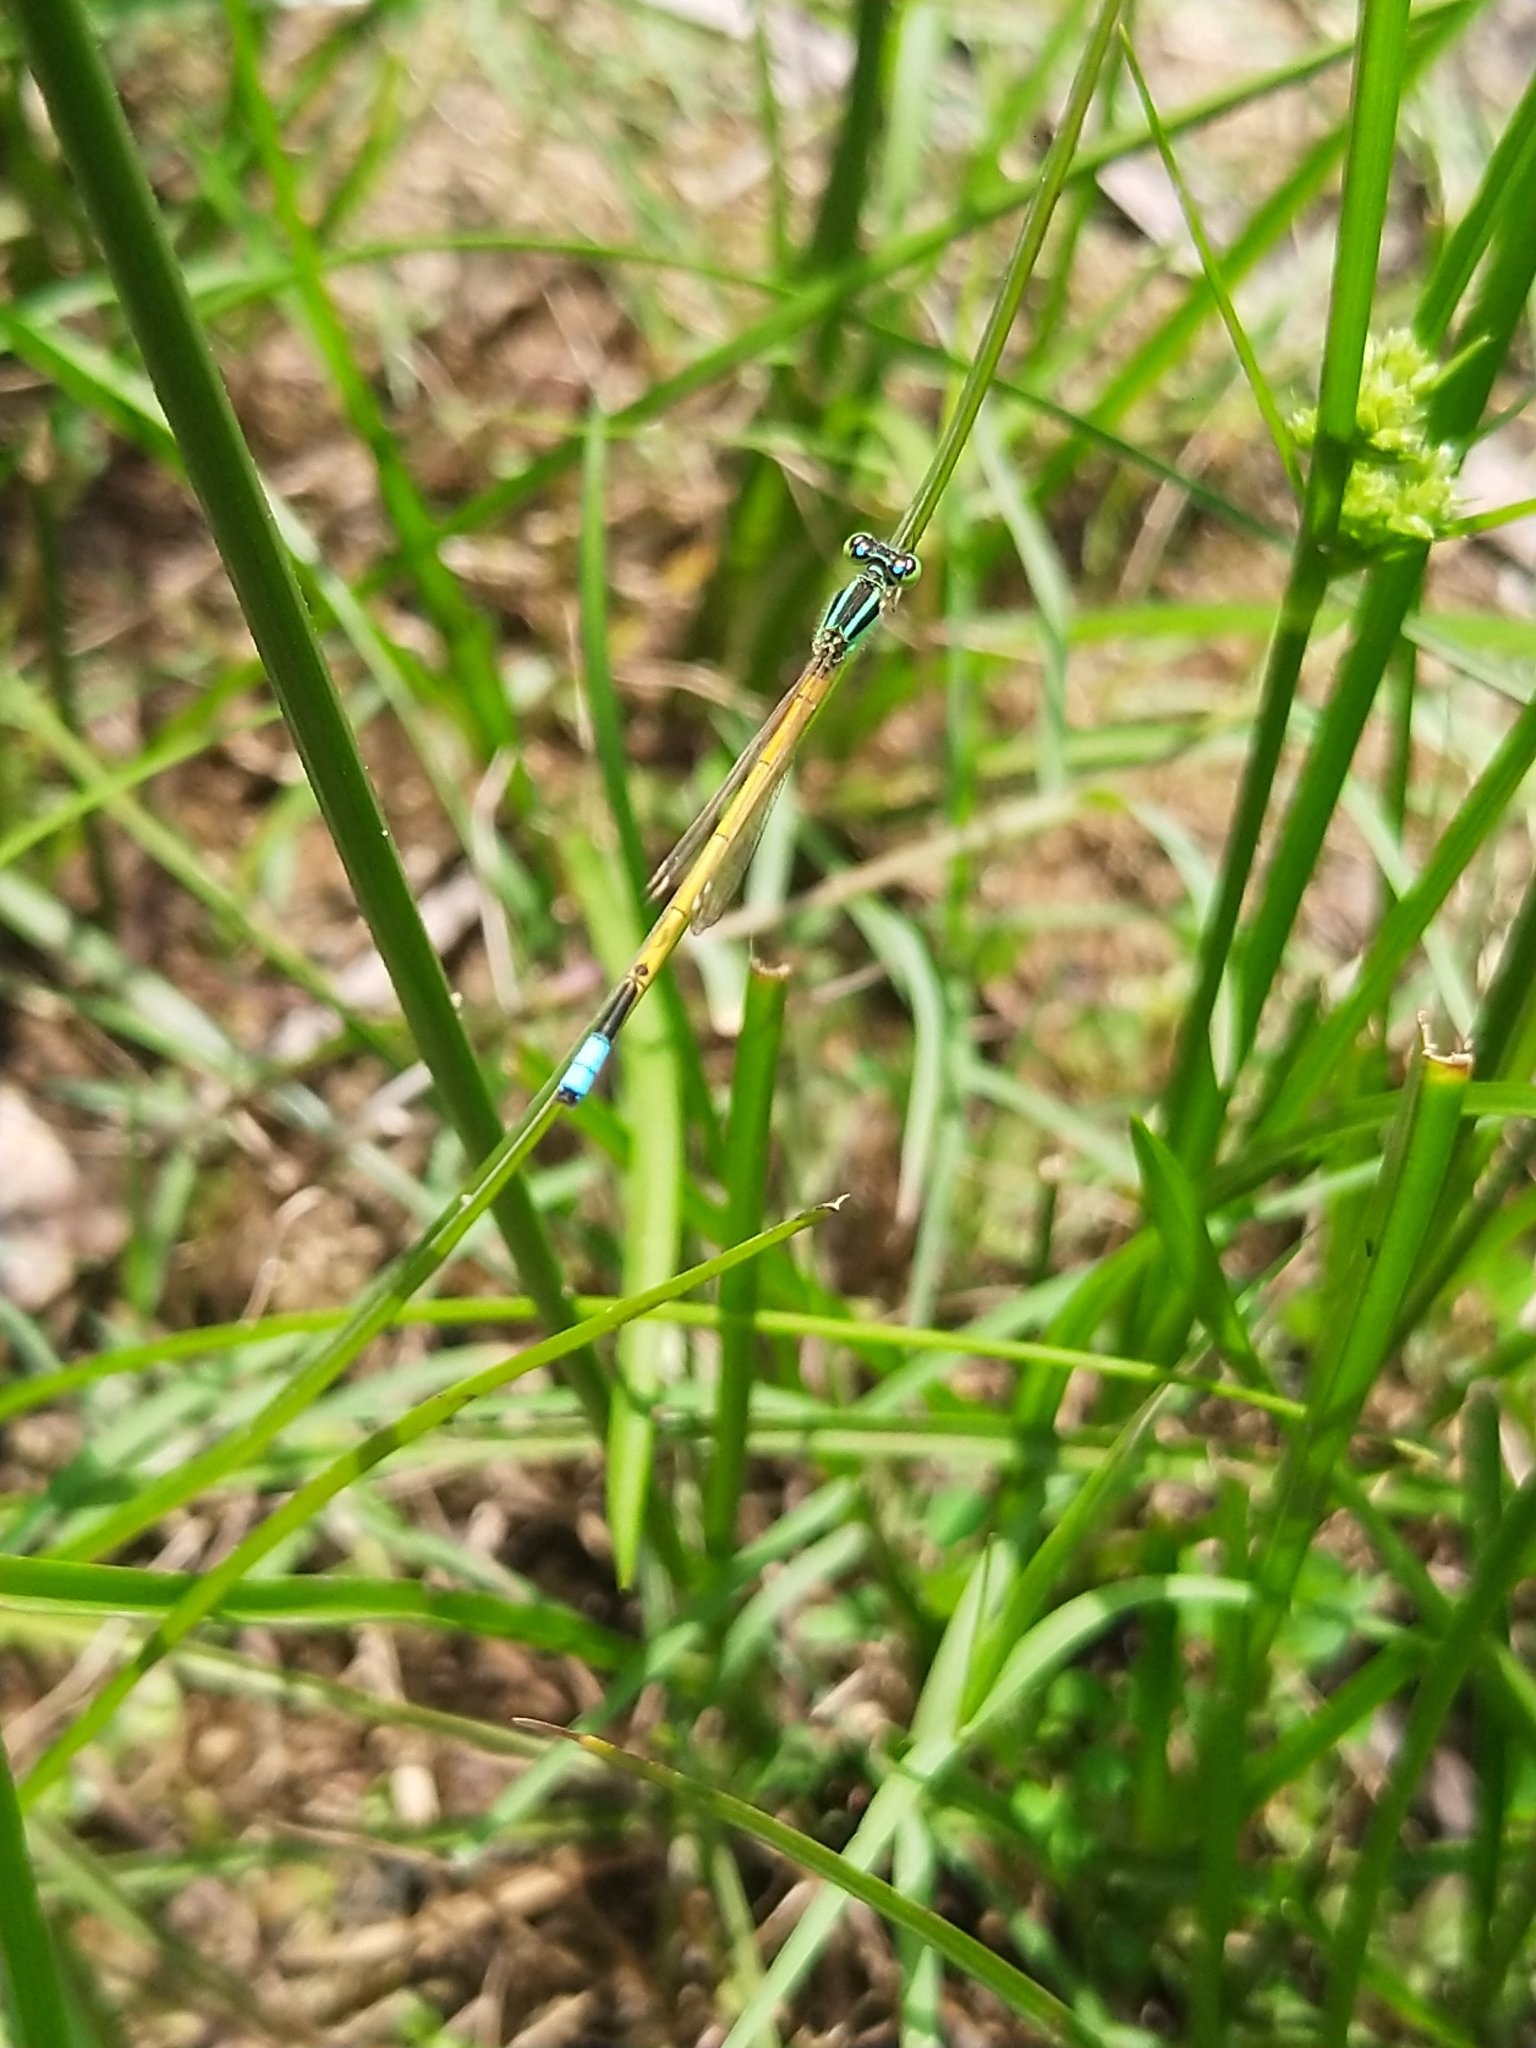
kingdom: Animalia
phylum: Arthropoda
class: Insecta
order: Odonata
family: Coenagrionidae
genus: Ischnura
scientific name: Ischnura rubilio
